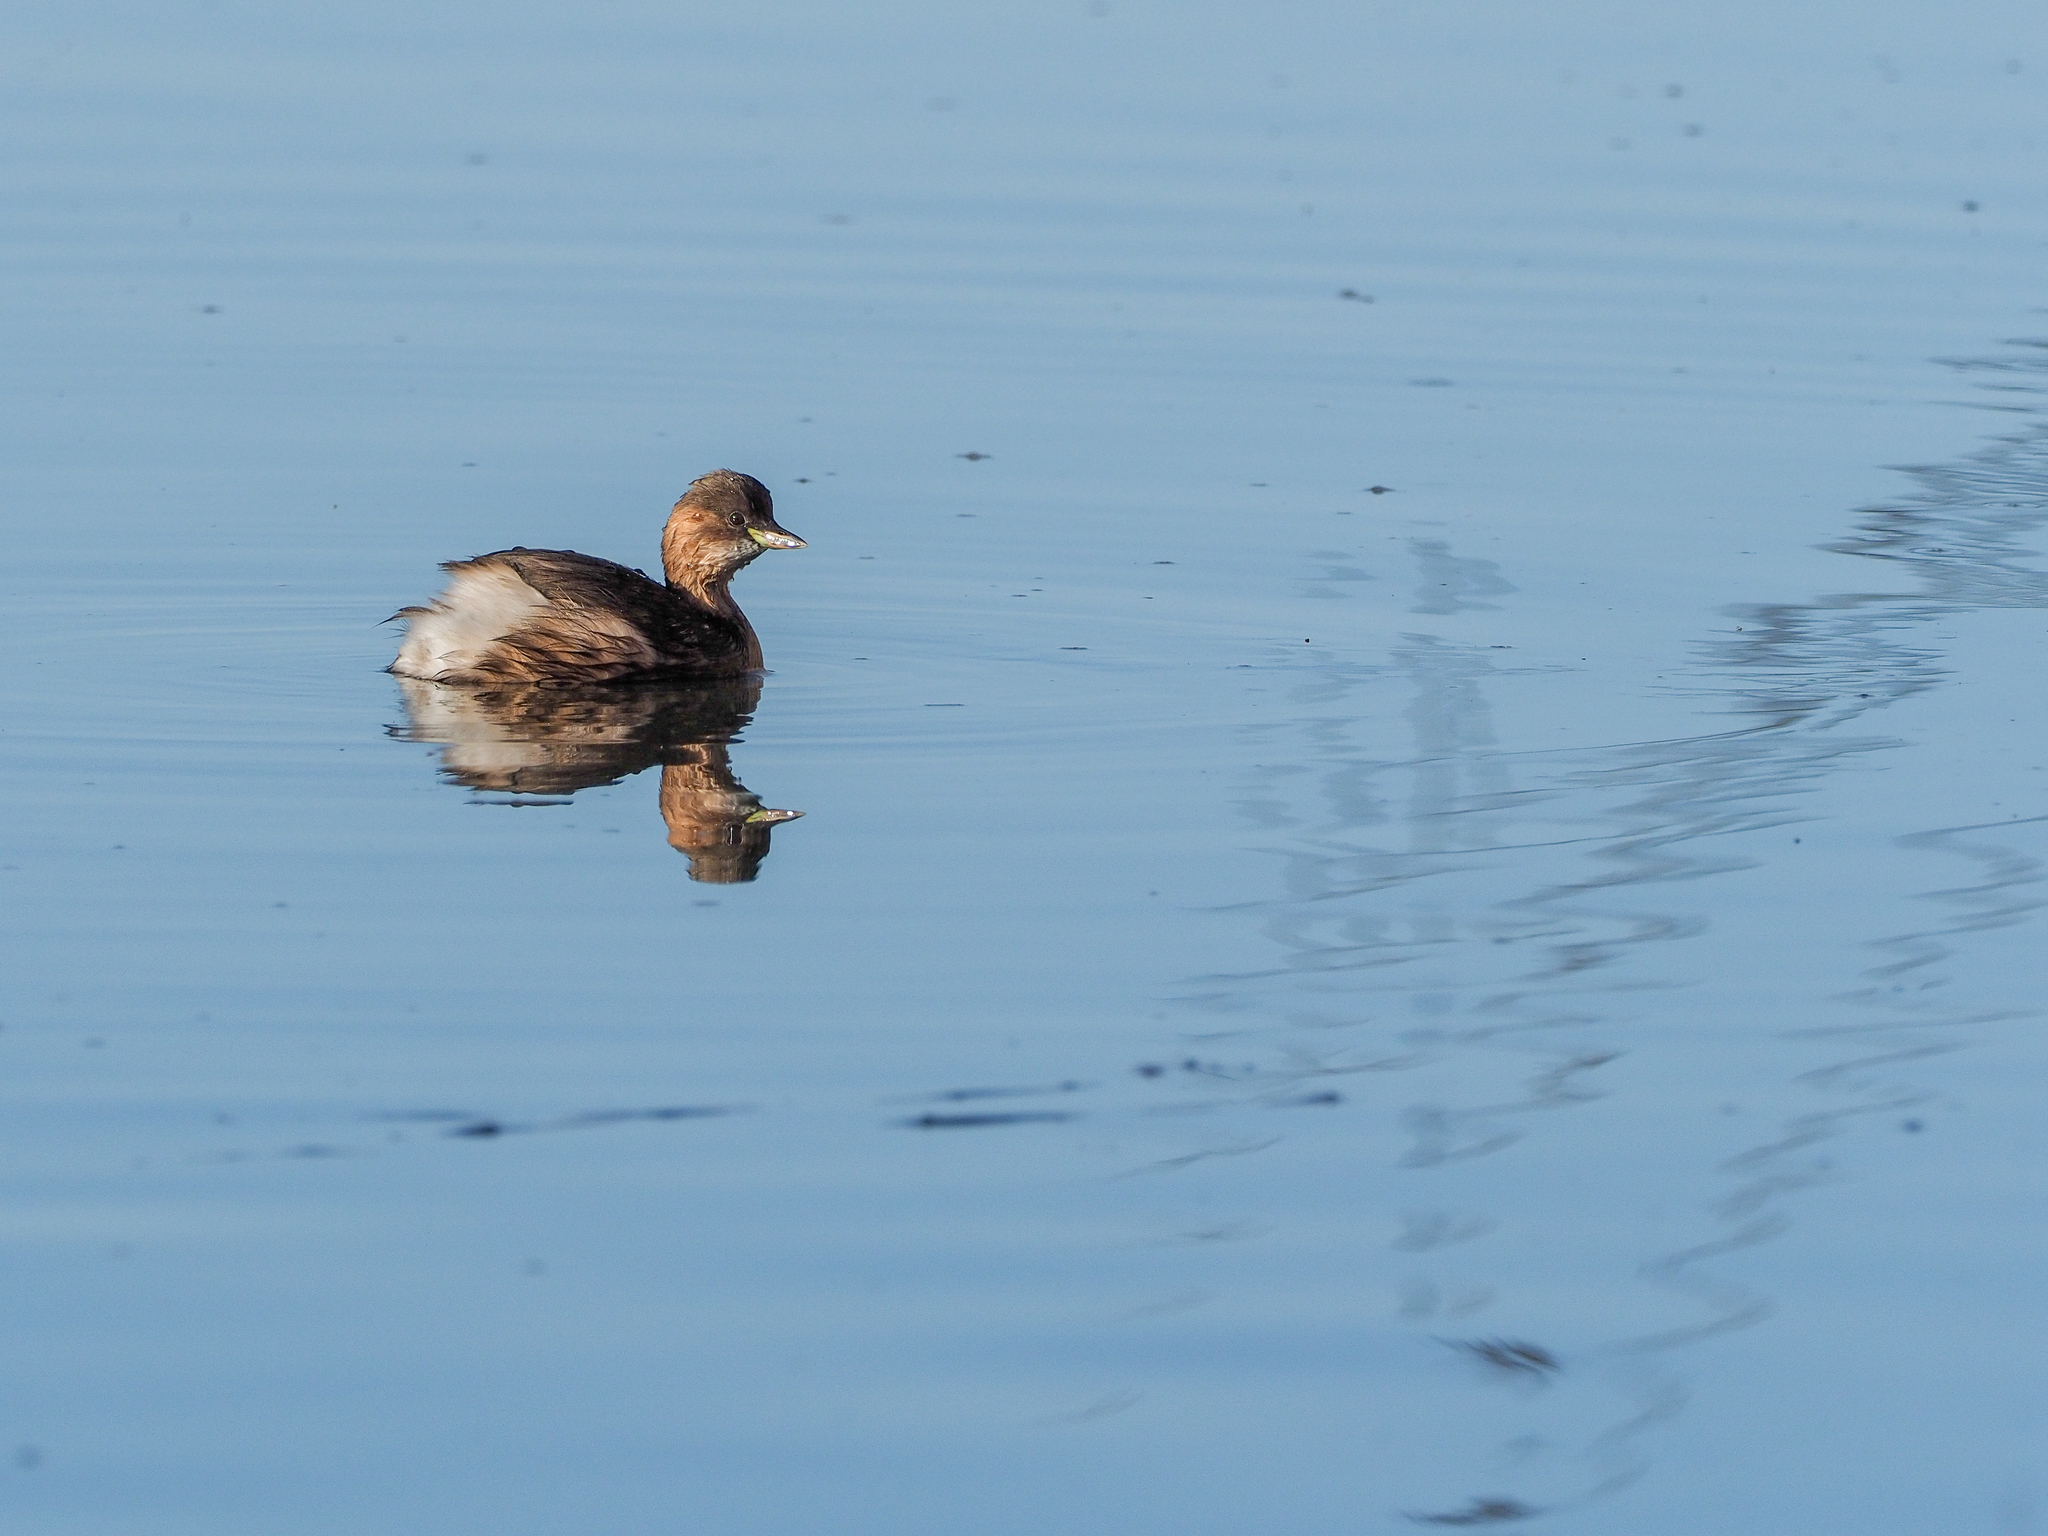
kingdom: Animalia
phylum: Chordata
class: Aves
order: Podicipediformes
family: Podicipedidae
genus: Tachybaptus
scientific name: Tachybaptus ruficollis
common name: Little grebe
